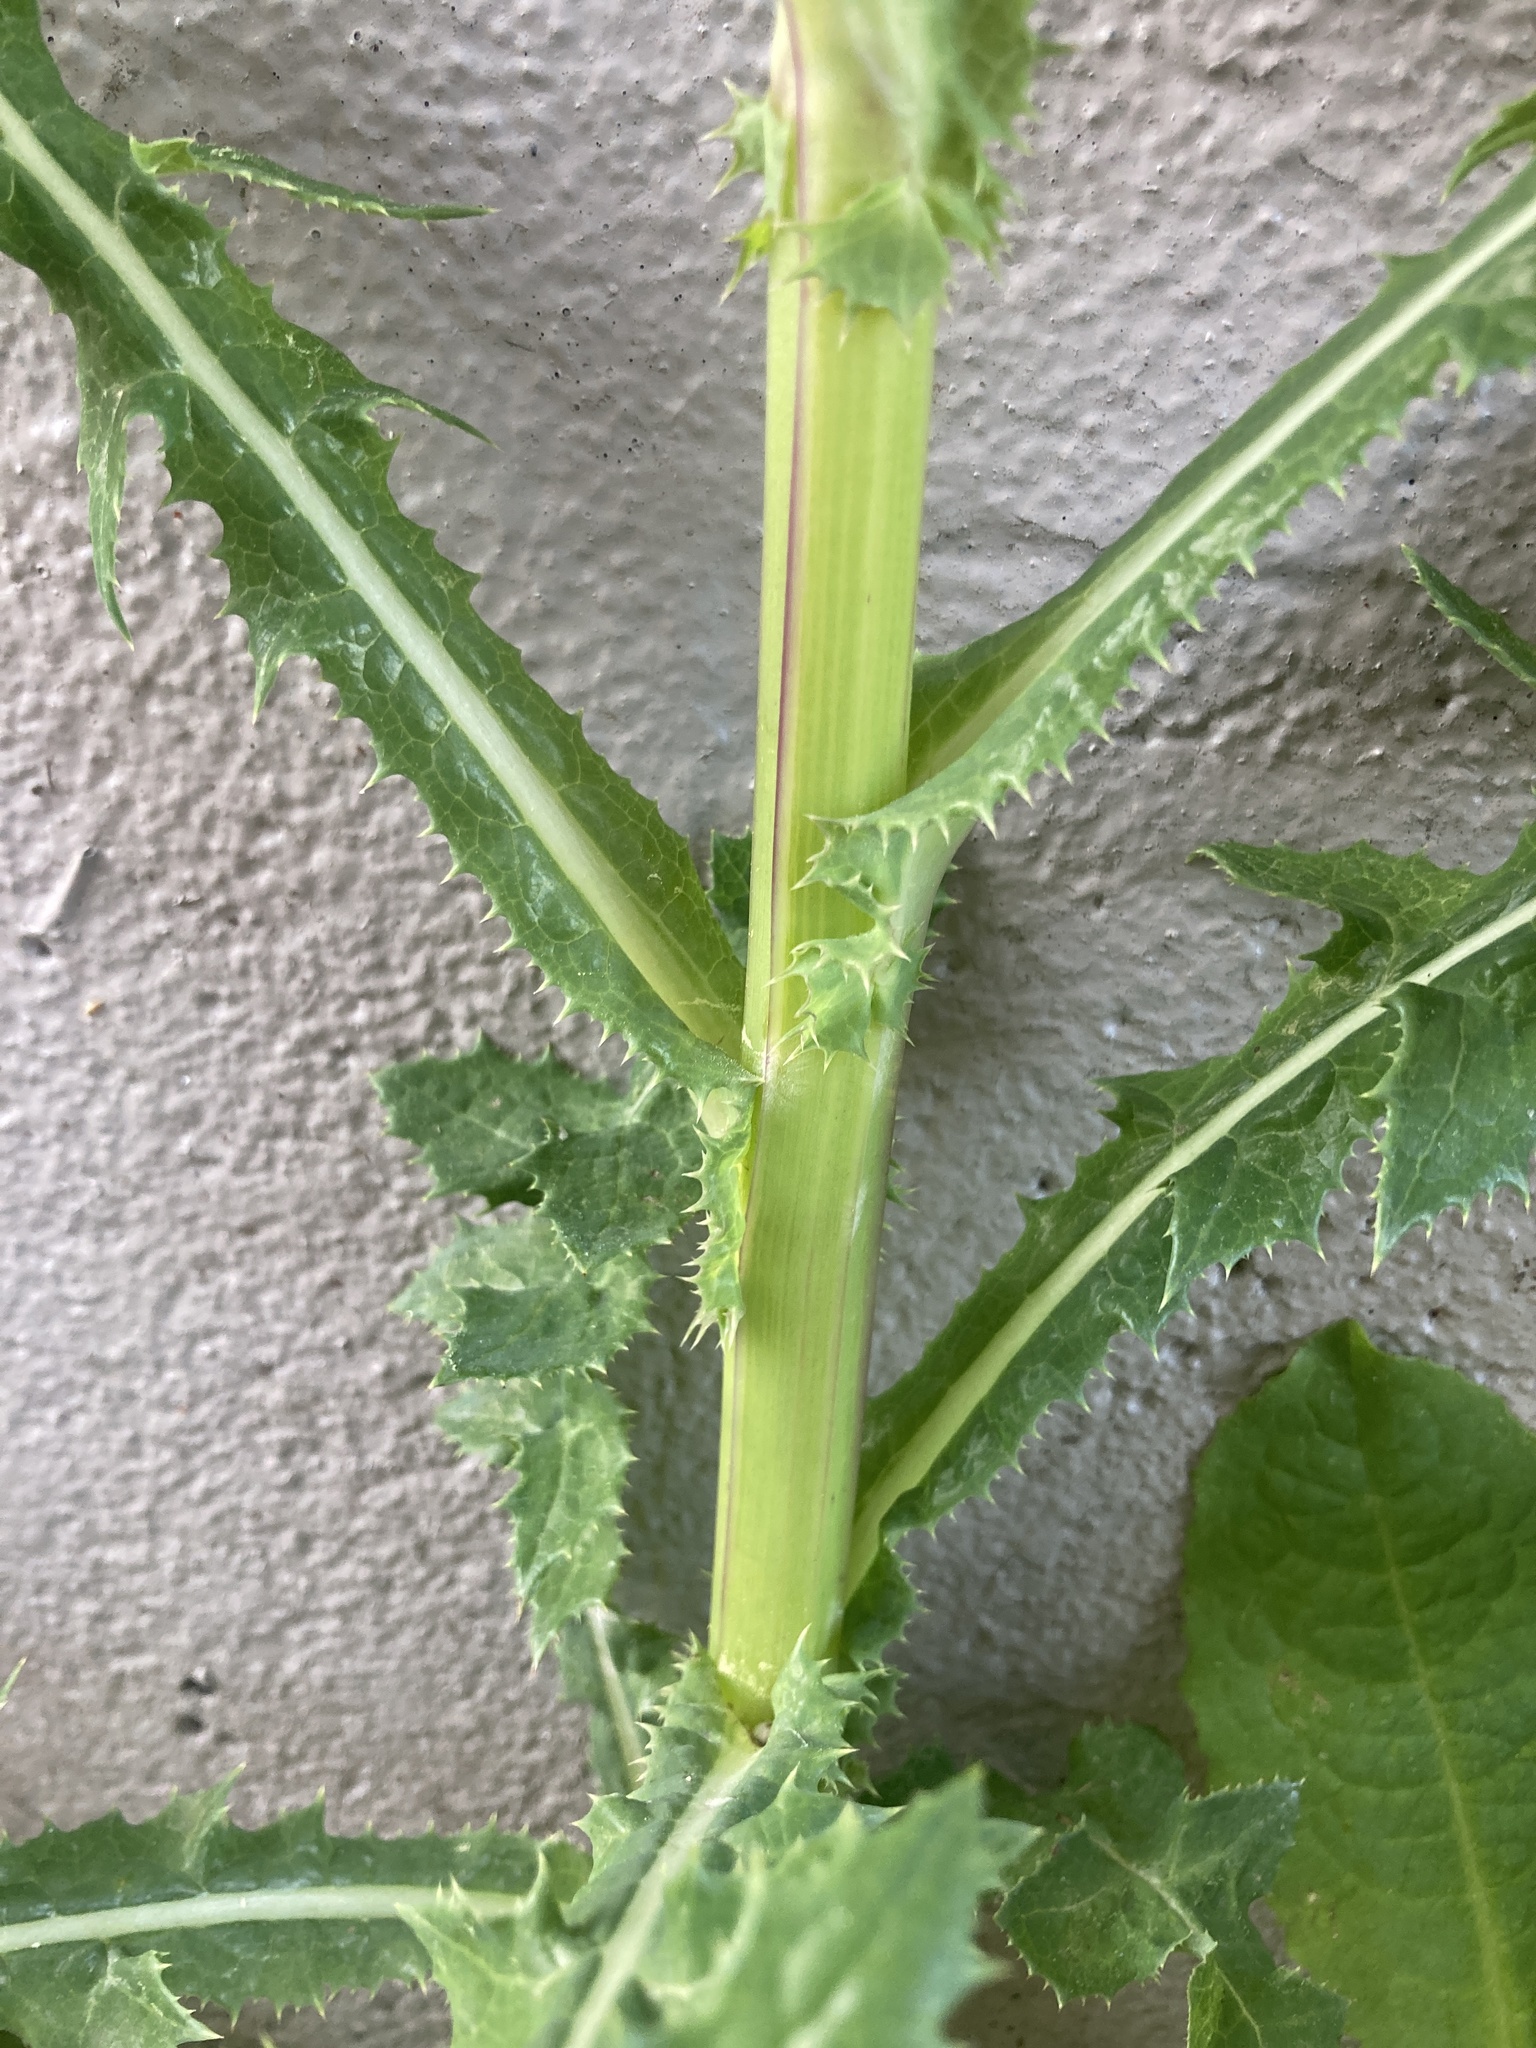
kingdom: Plantae
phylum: Tracheophyta
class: Magnoliopsida
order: Asterales
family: Asteraceae
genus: Sonchus
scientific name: Sonchus asper
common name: Prickly sow-thistle
